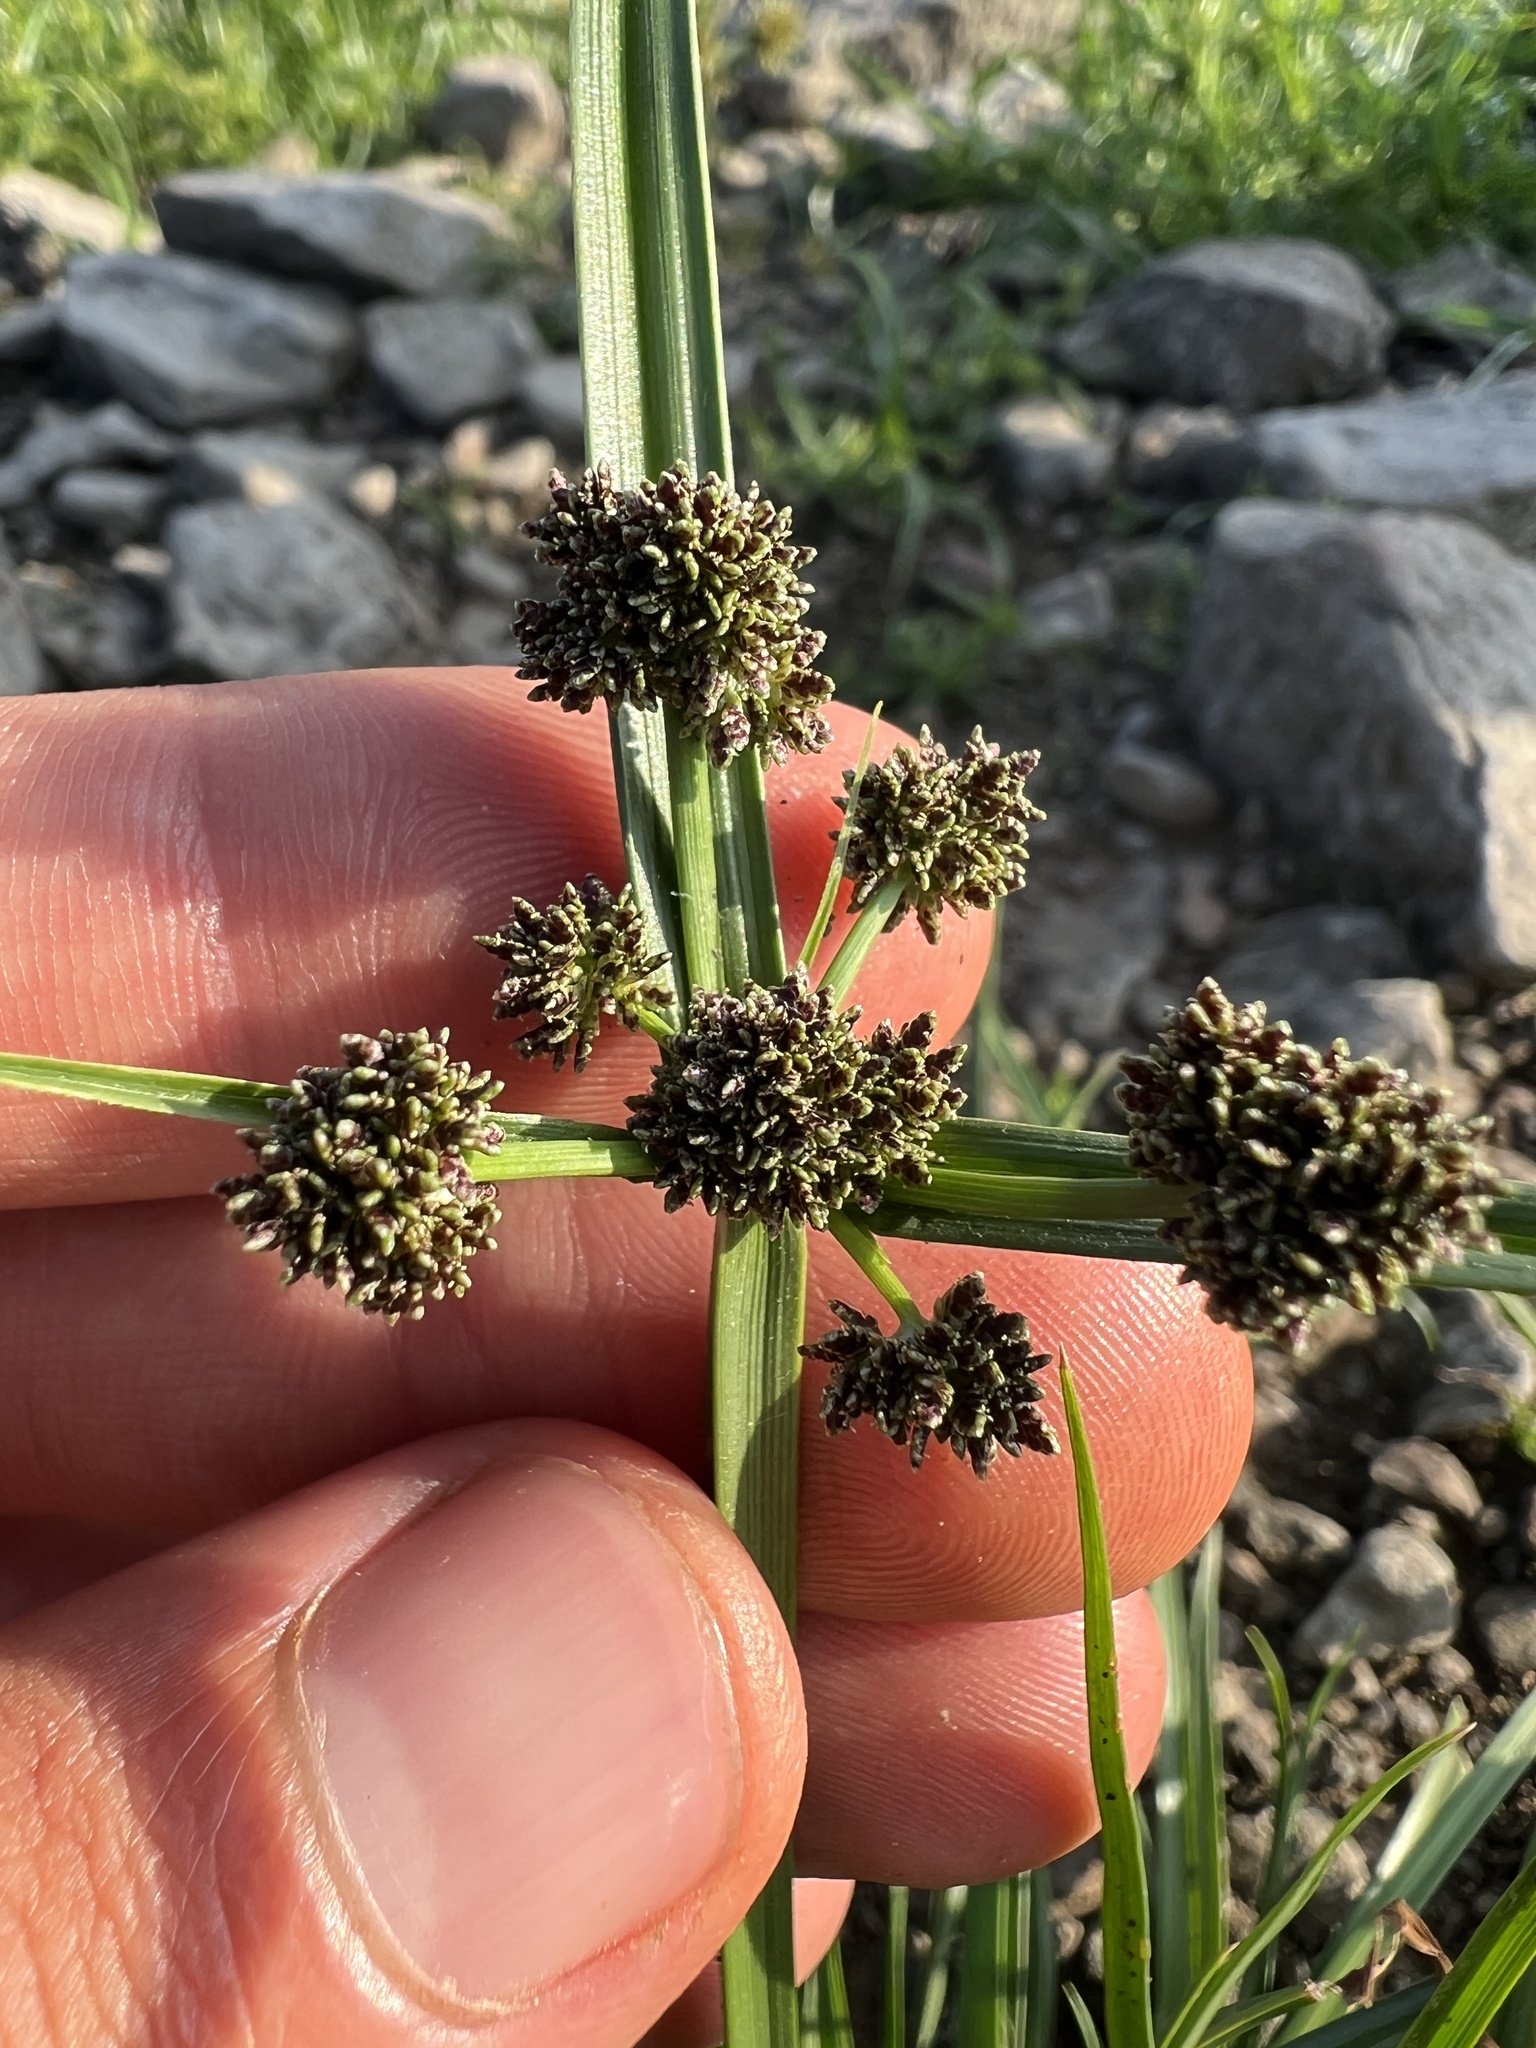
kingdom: Plantae
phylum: Tracheophyta
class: Liliopsida
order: Poales
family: Cyperaceae
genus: Cyperus
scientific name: Cyperus difformis
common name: Variable flatsedge
